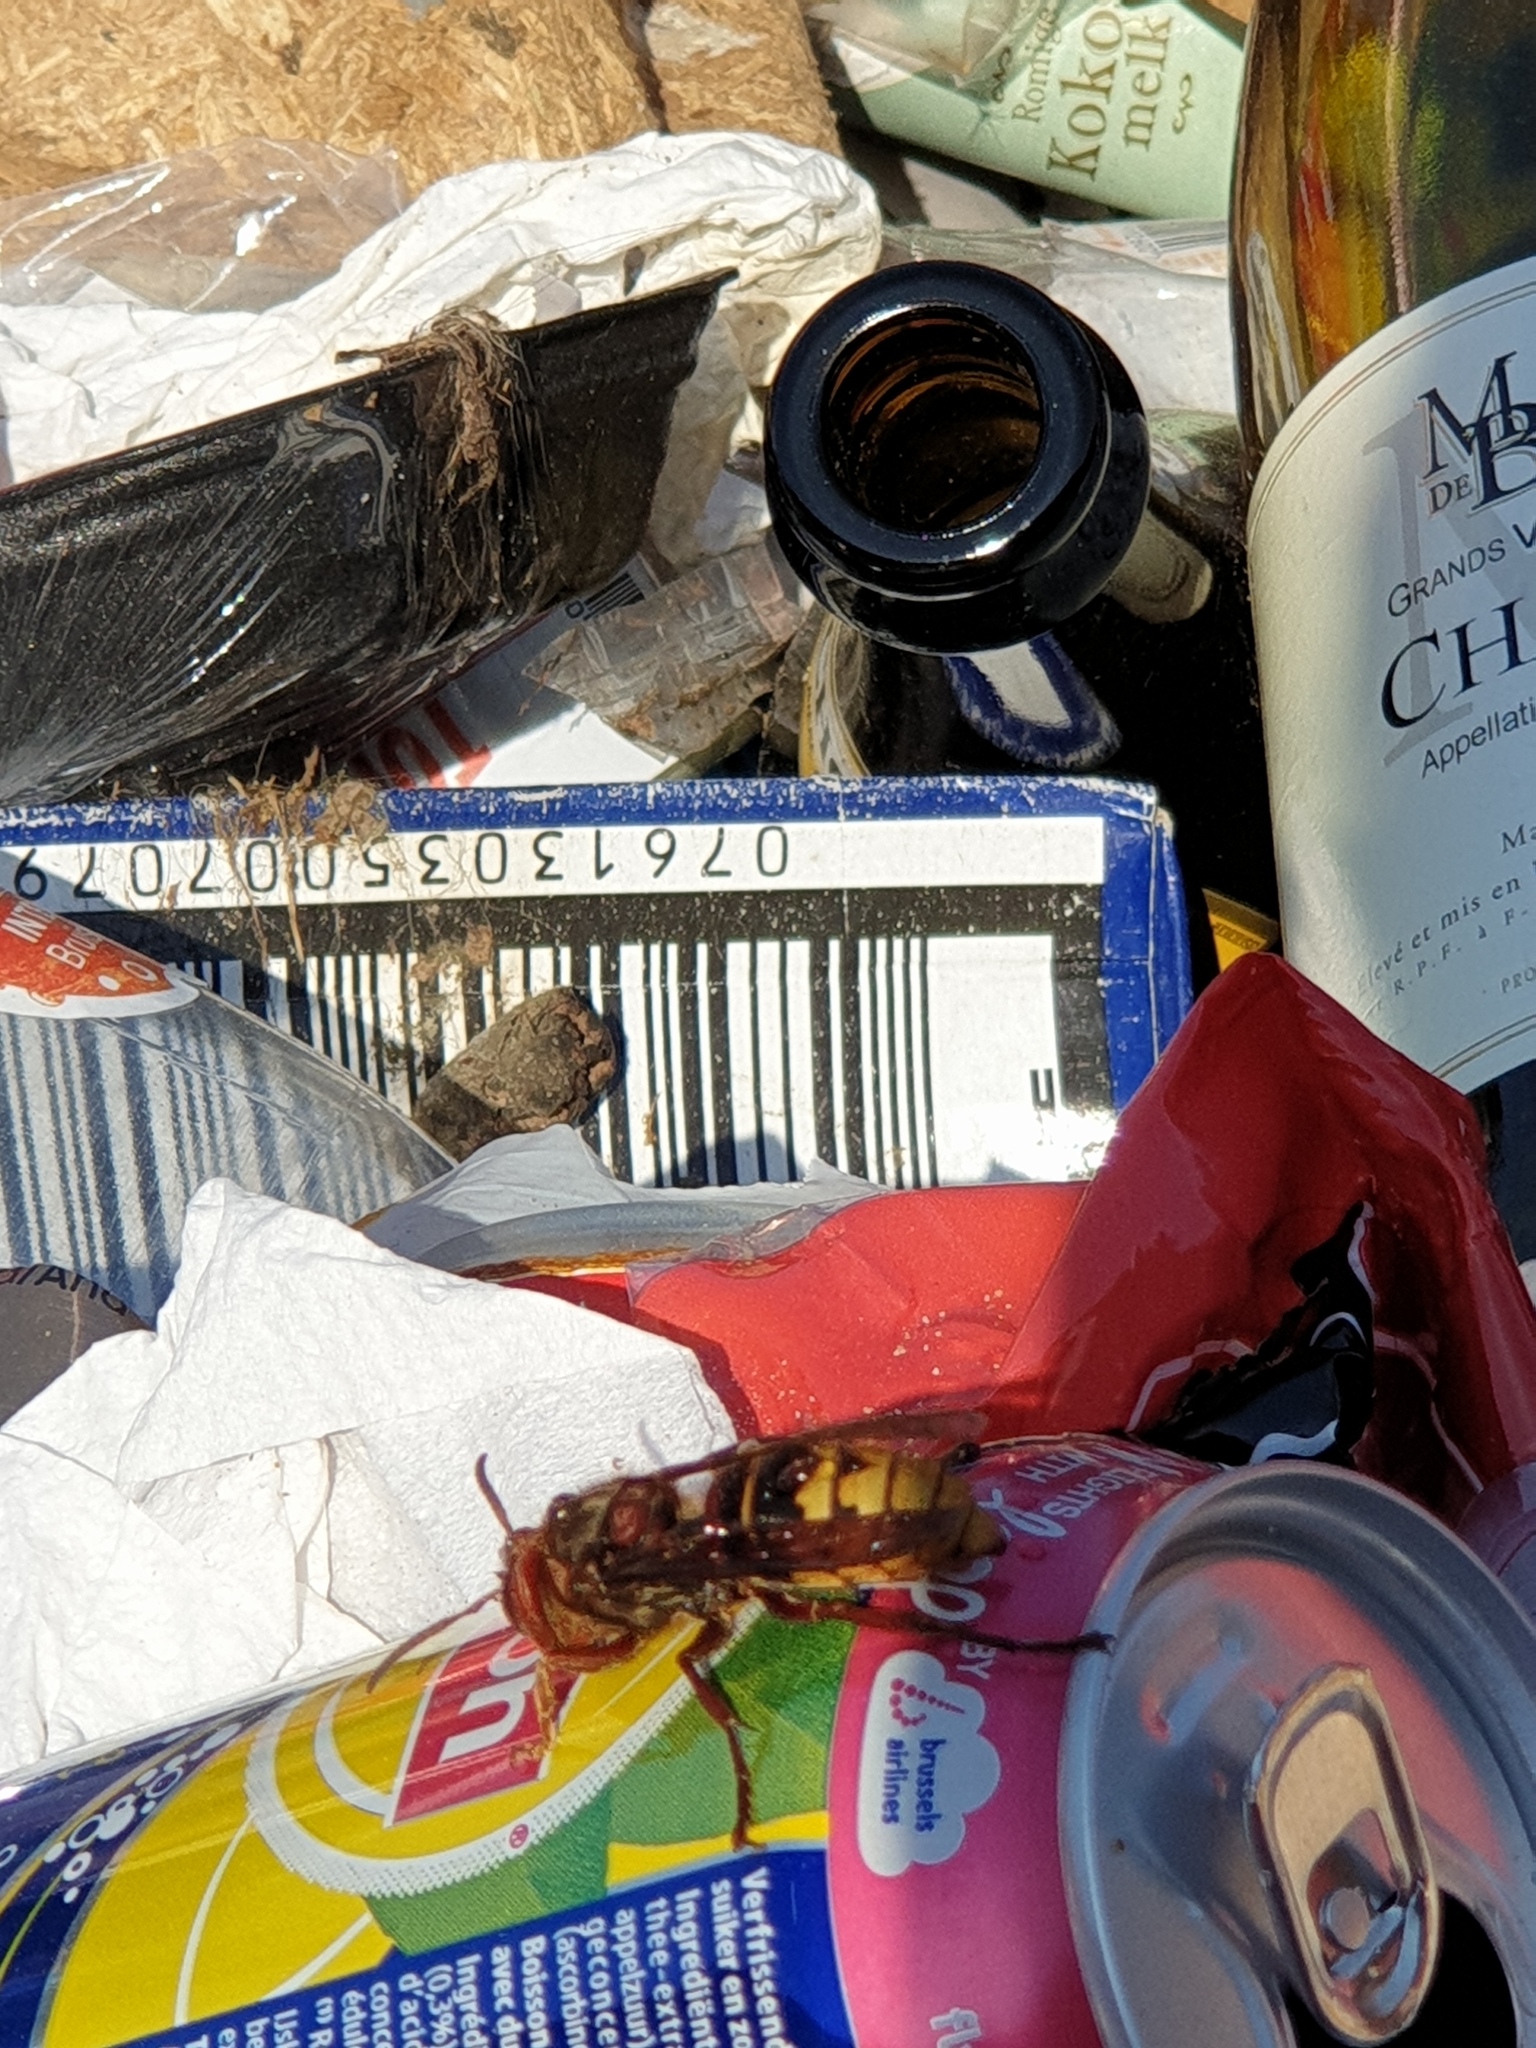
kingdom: Animalia
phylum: Arthropoda
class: Insecta
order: Hymenoptera
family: Vespidae
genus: Vespa
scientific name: Vespa crabro
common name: Hornet
